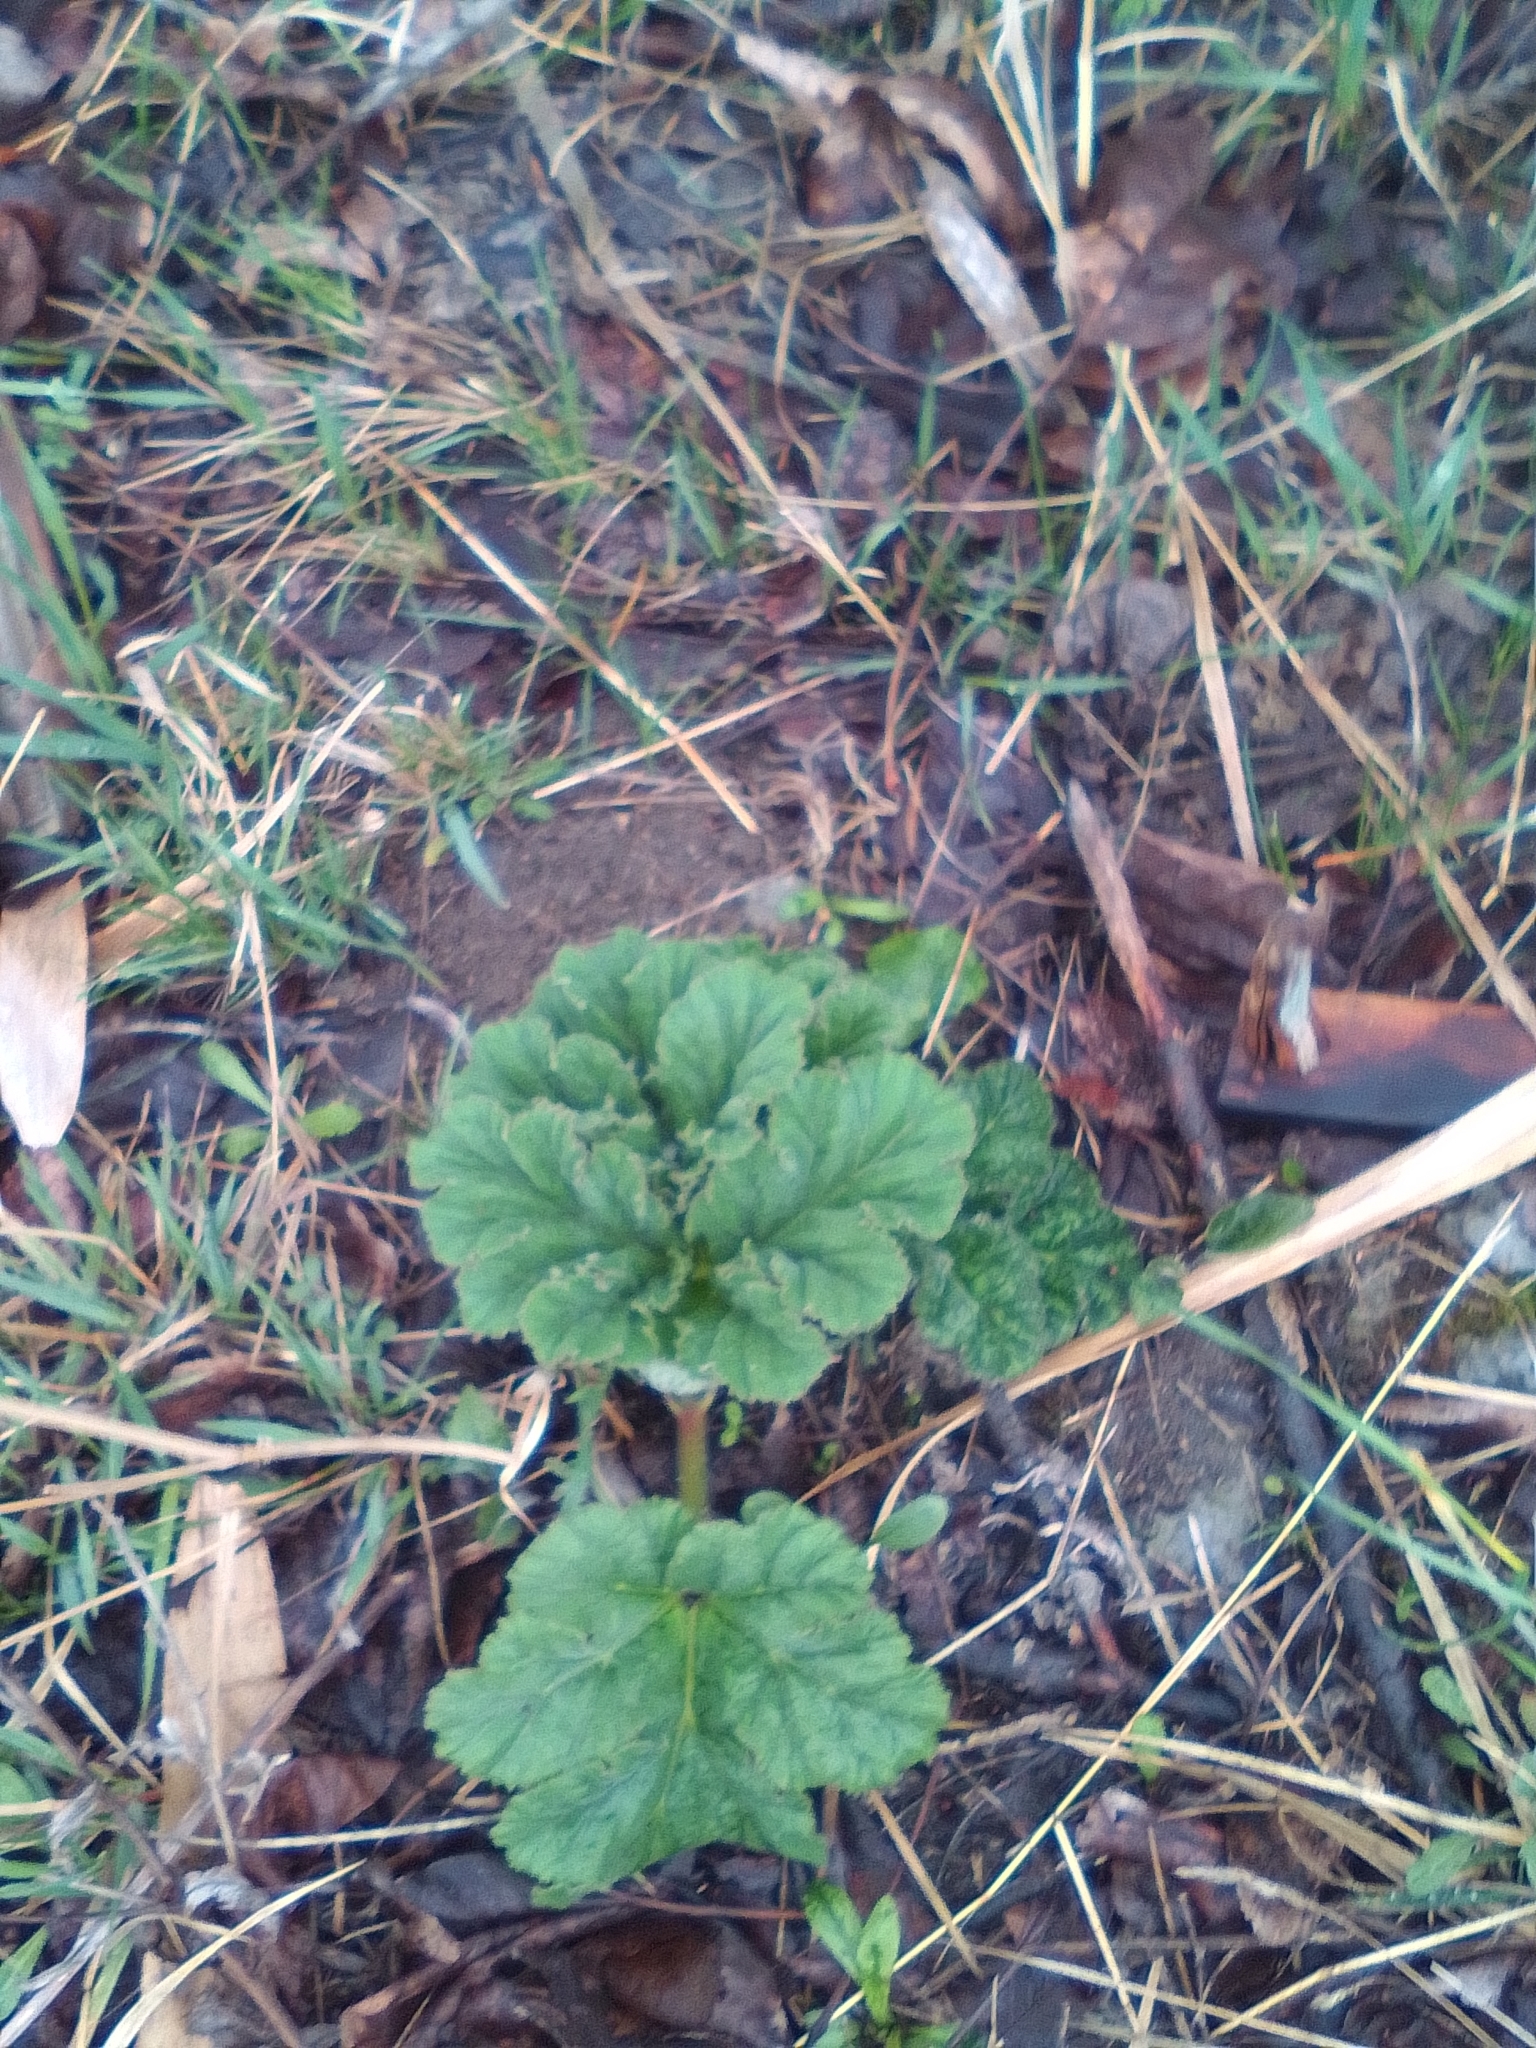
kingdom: Plantae
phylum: Tracheophyta
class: Magnoliopsida
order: Apiales
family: Apiaceae
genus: Heracleum
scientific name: Heracleum leskovii
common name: Leskov's cow-parsnip
